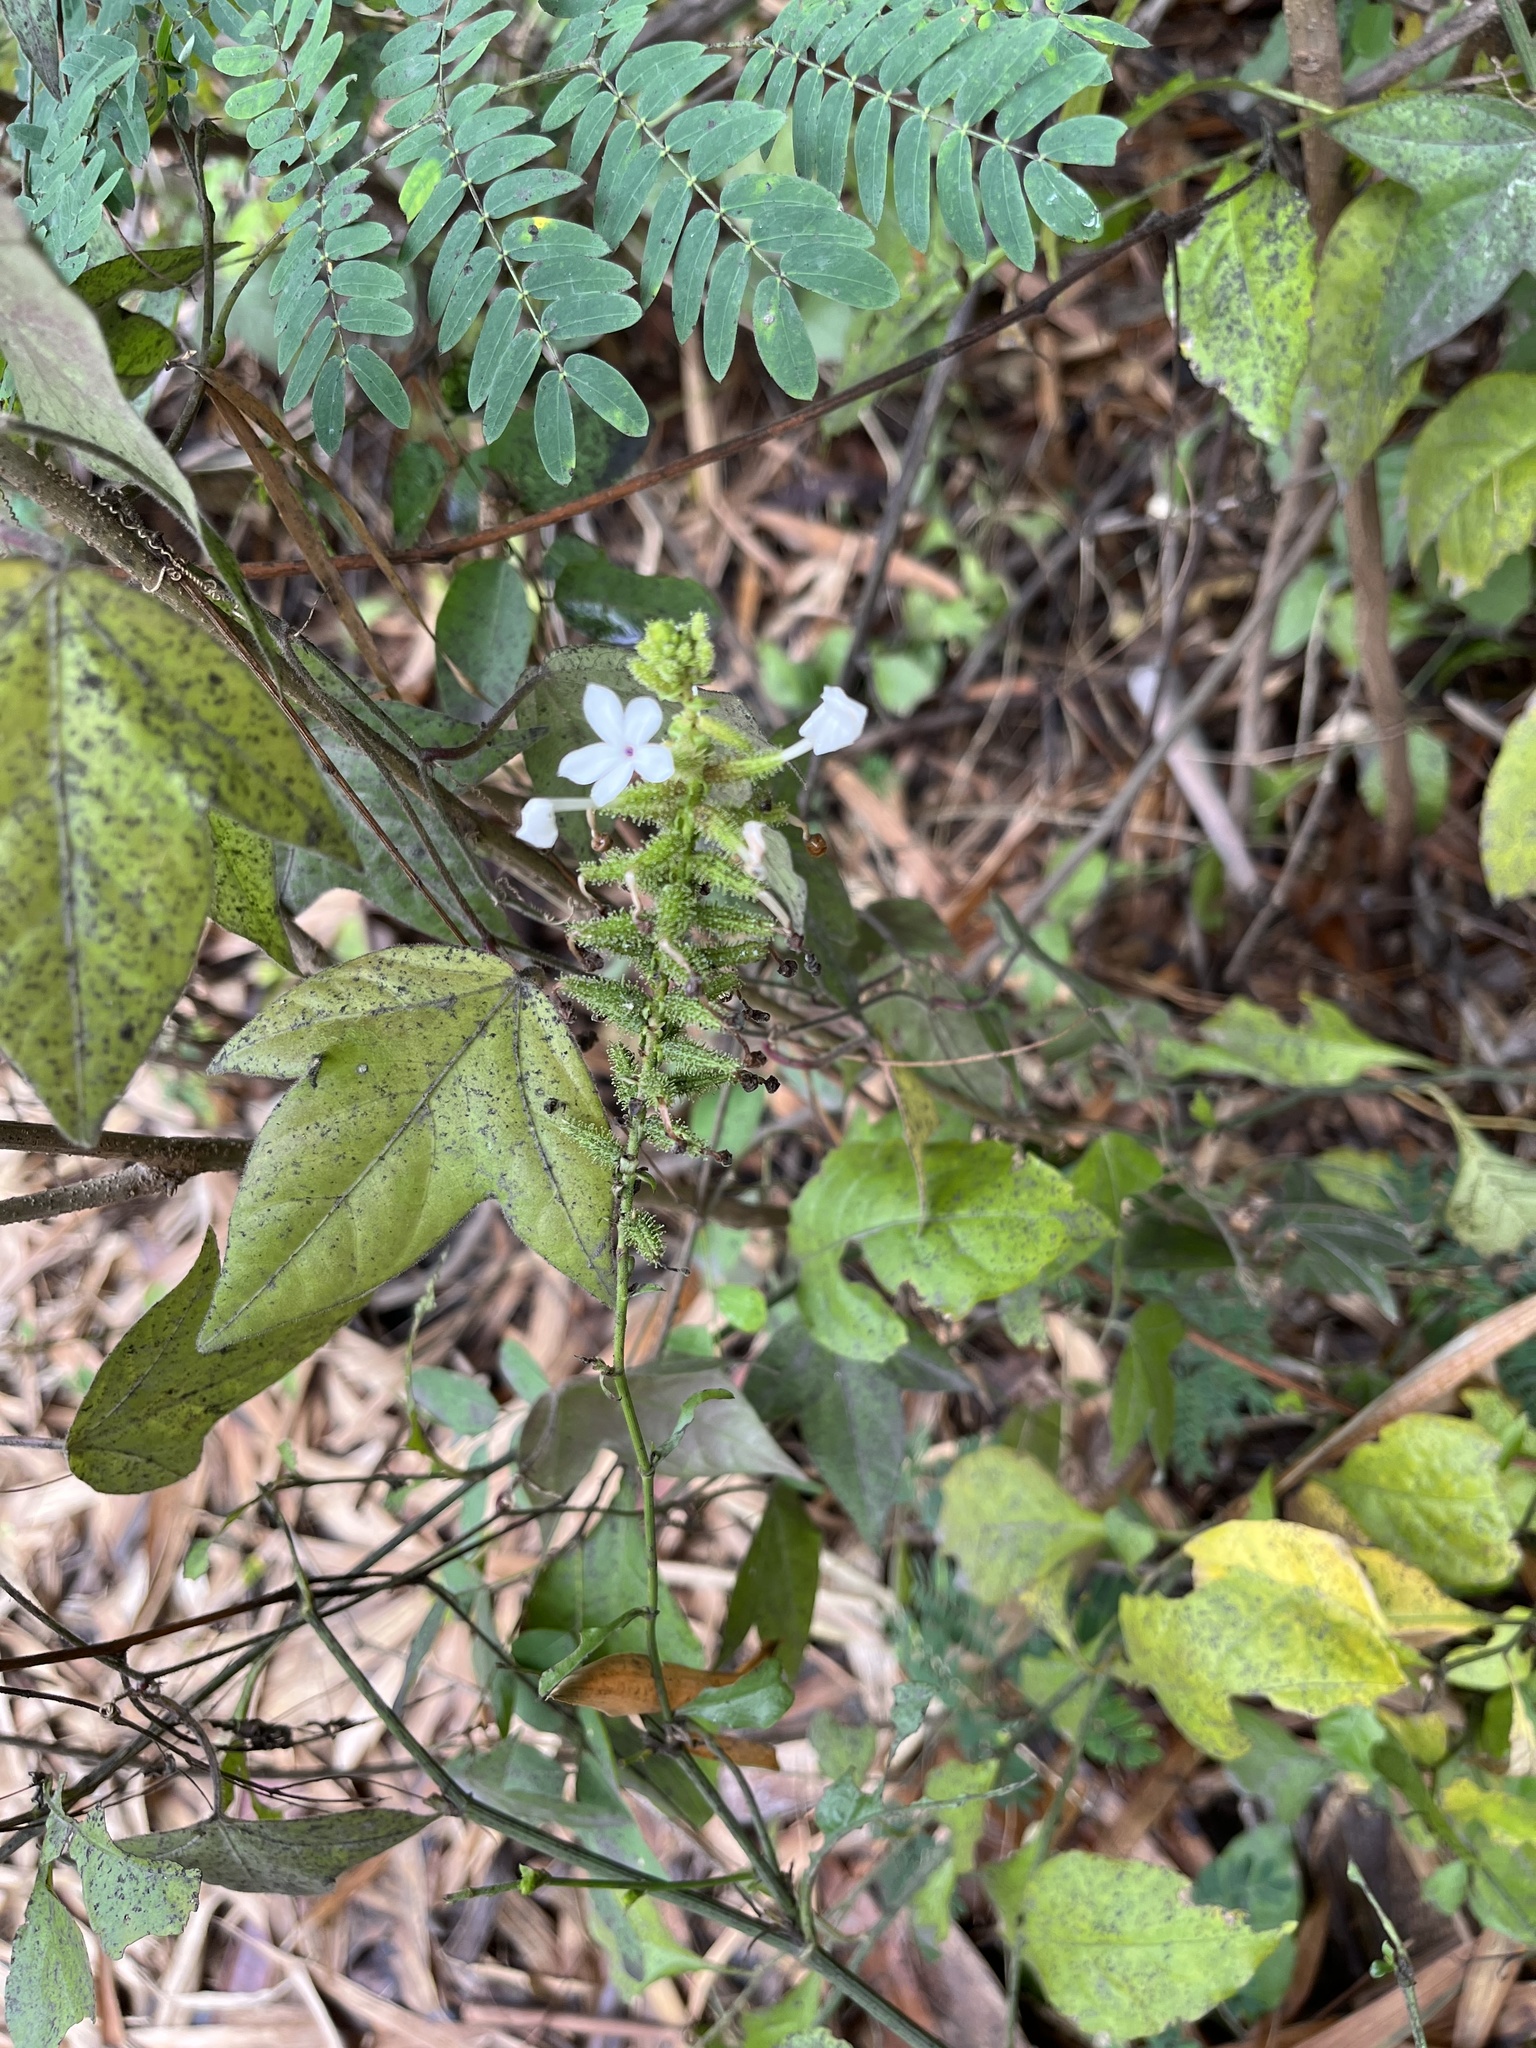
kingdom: Plantae
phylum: Tracheophyta
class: Magnoliopsida
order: Caryophyllales
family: Plumbaginaceae
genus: Plumbago
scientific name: Plumbago zeylanica
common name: Doctorbush
